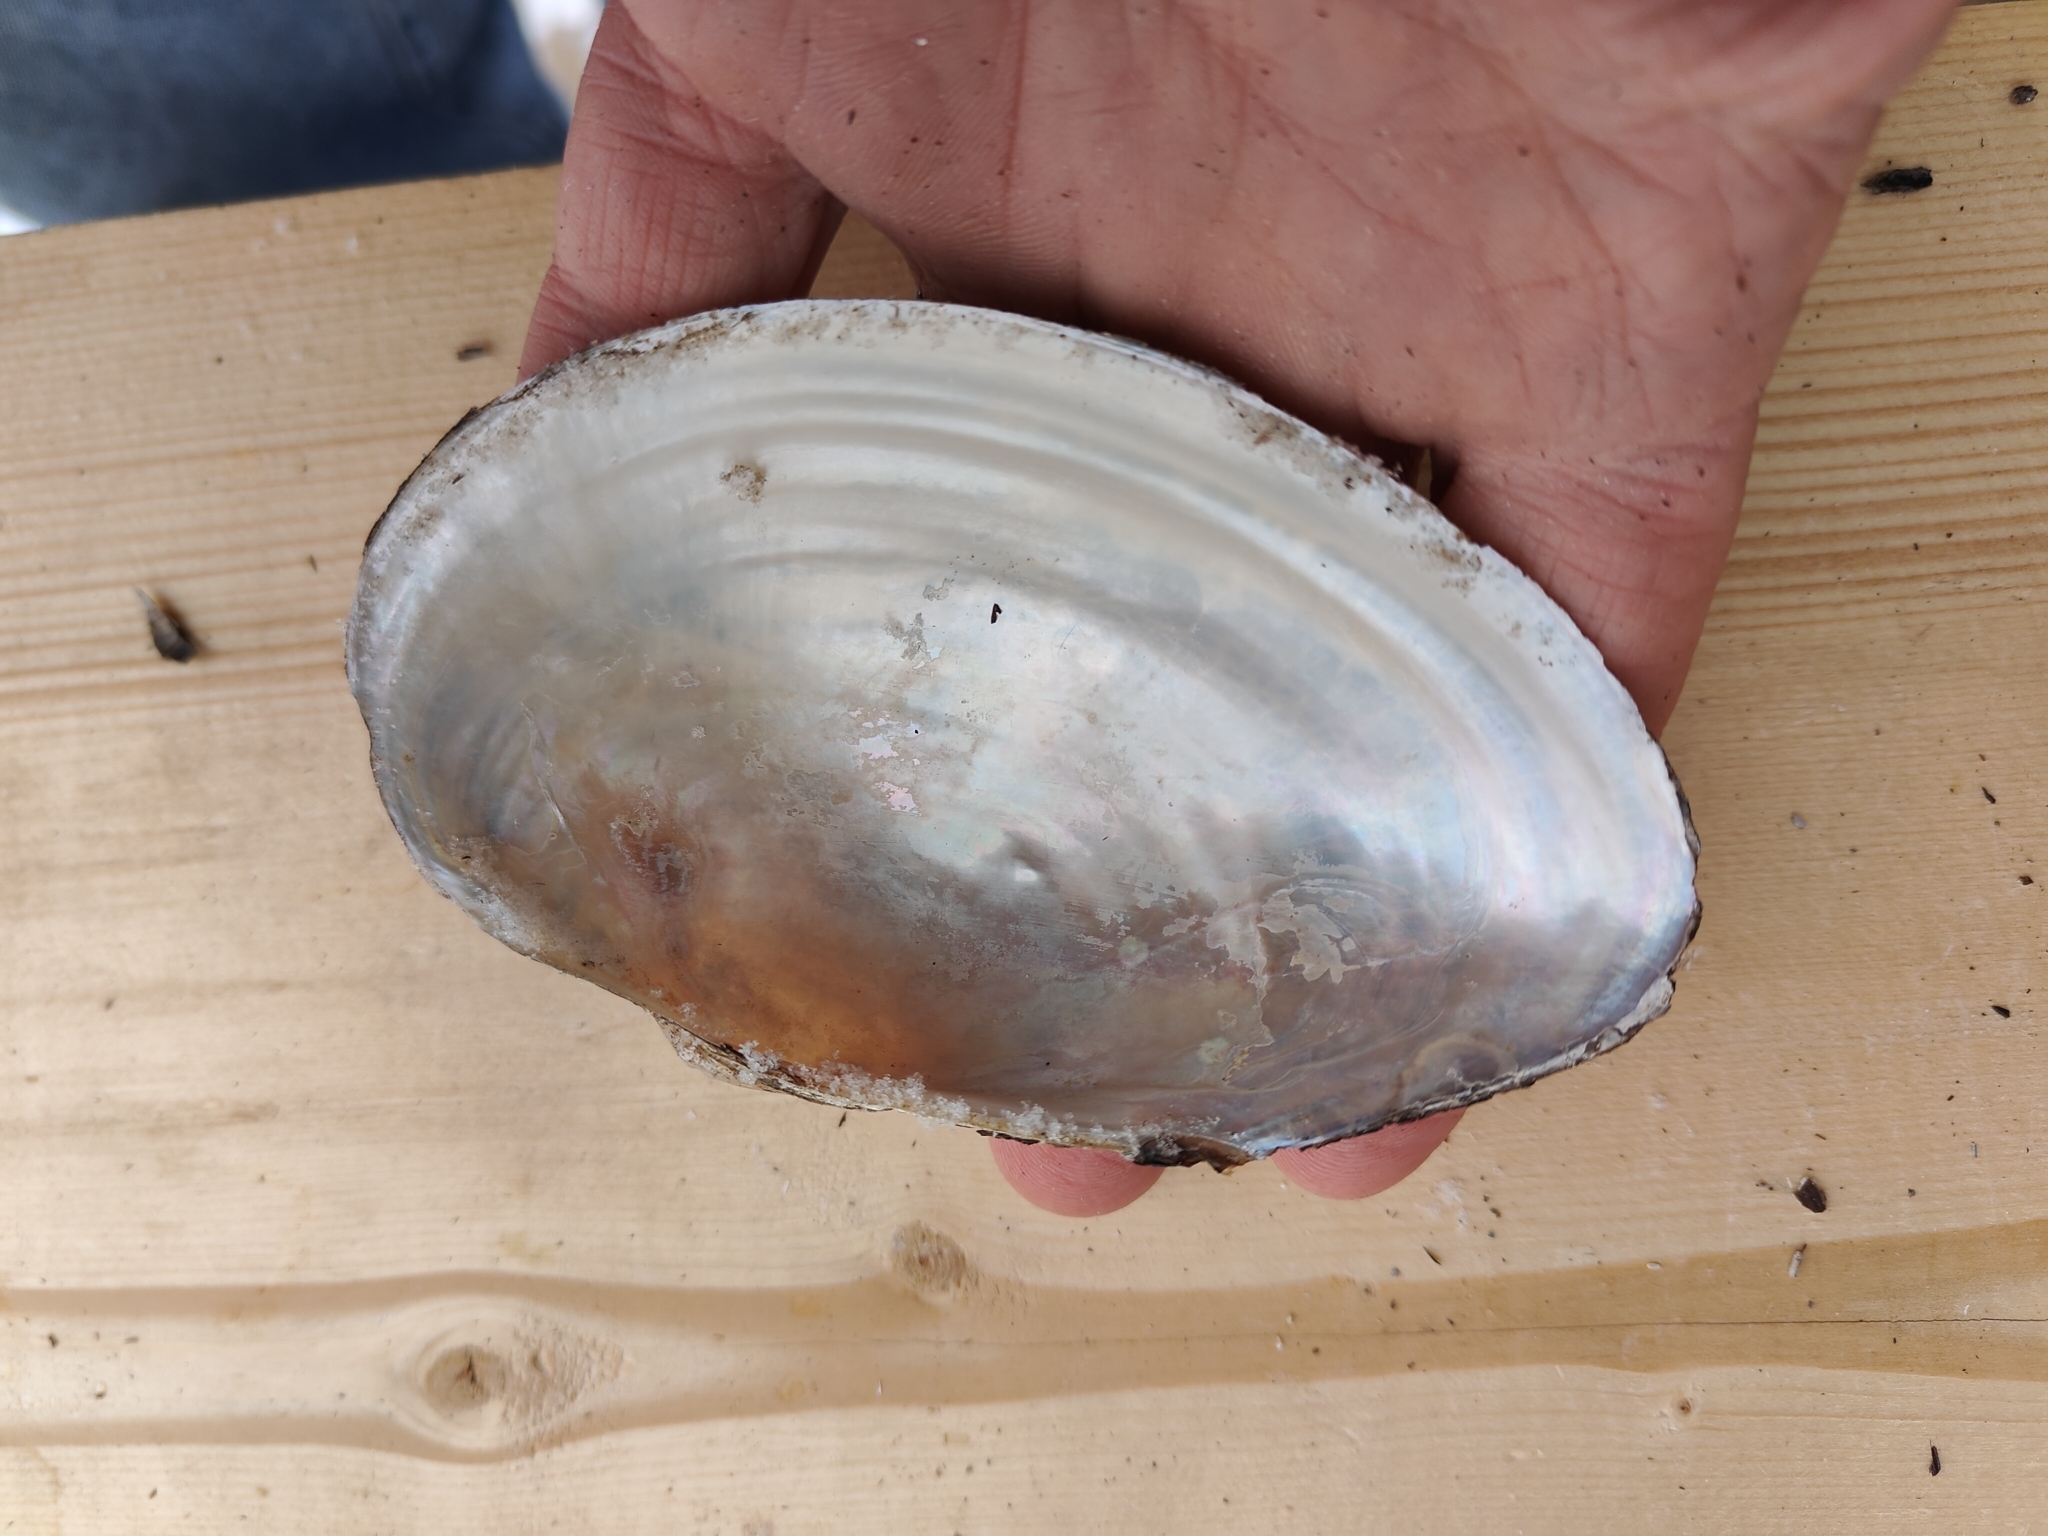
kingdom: Animalia
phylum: Mollusca
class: Bivalvia
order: Unionida
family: Unionidae
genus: Pyganodon
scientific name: Pyganodon grandis
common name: Giant floater
